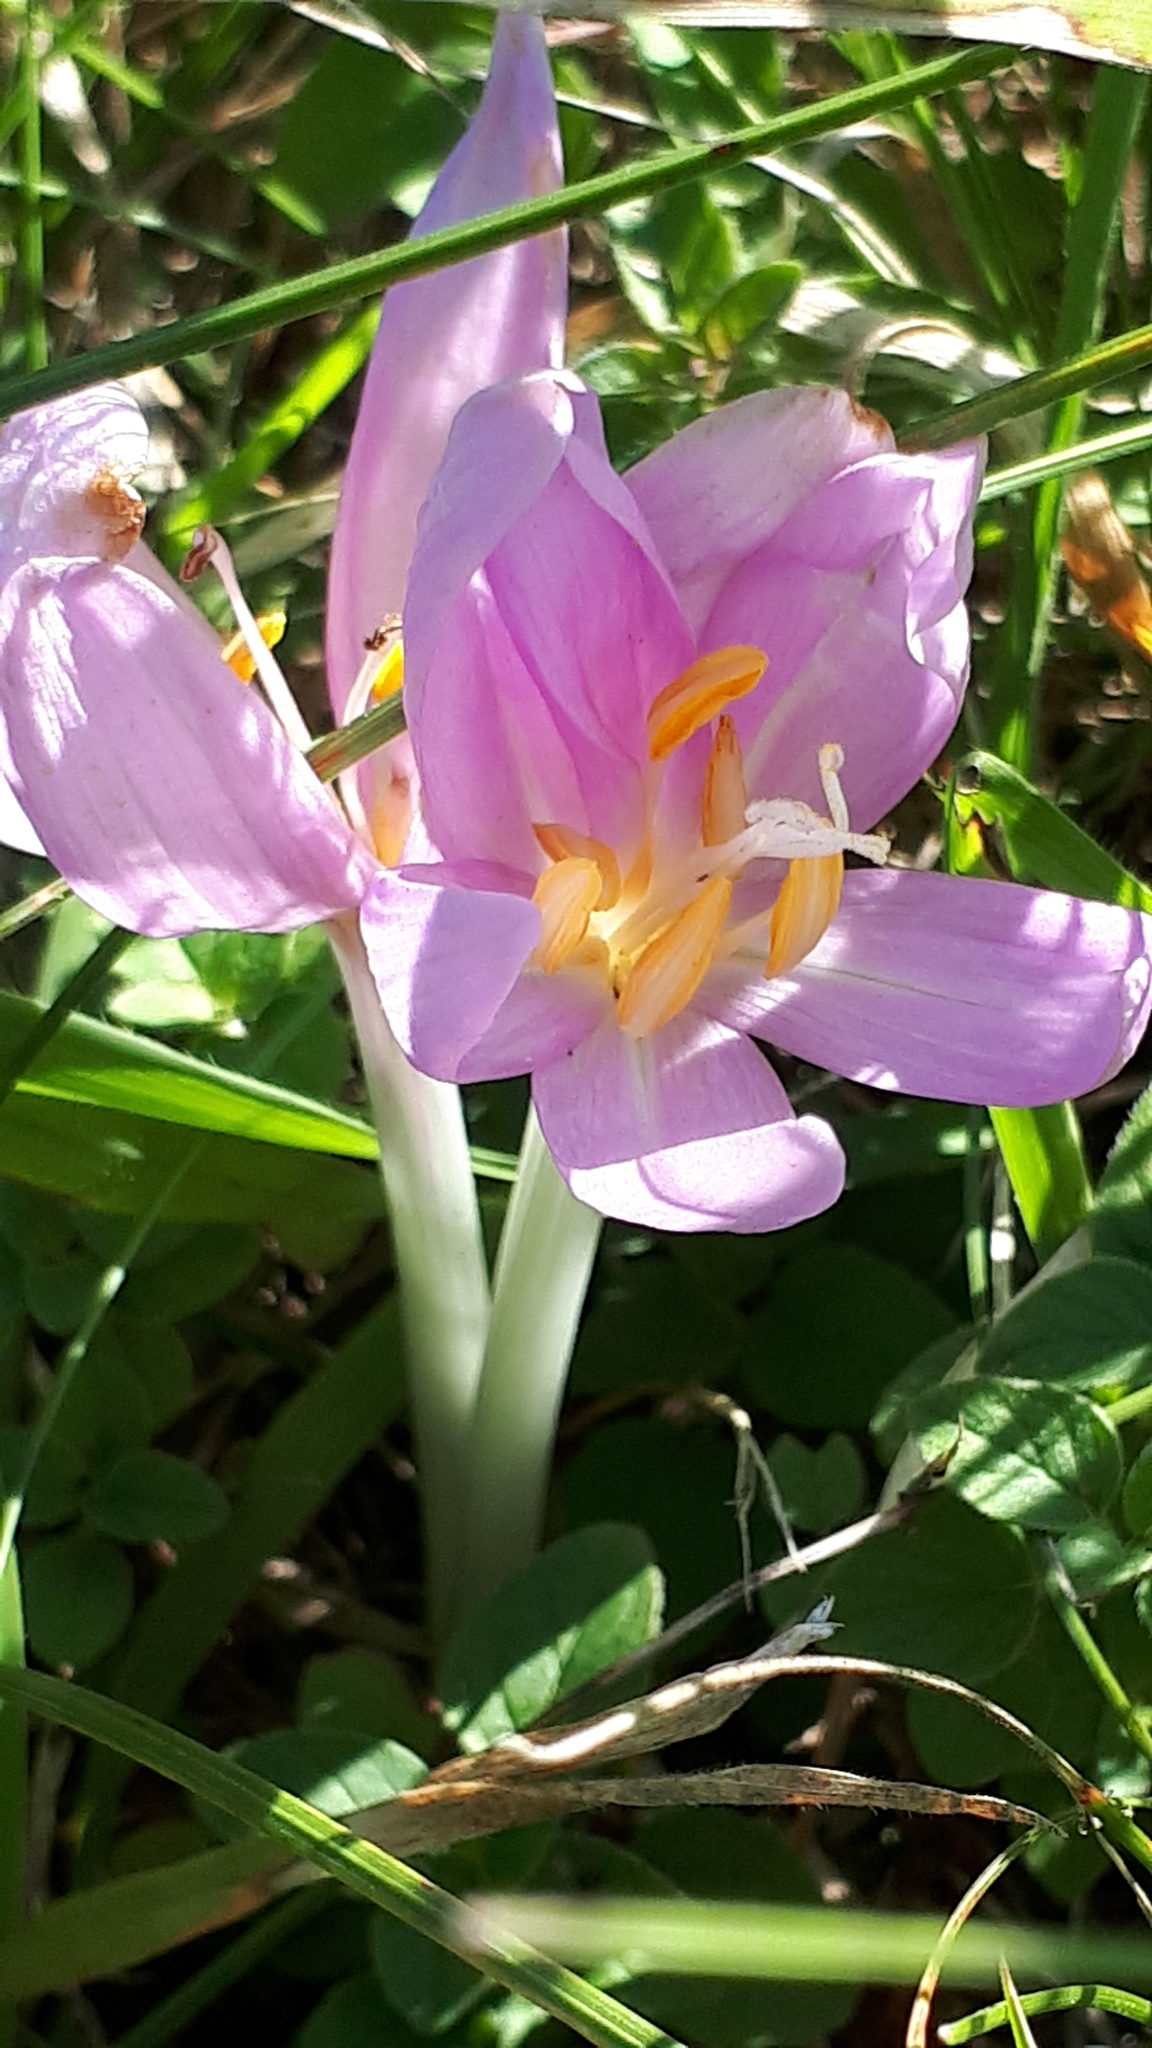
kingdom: Plantae
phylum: Tracheophyta
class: Liliopsida
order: Liliales
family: Colchicaceae
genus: Colchicum
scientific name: Colchicum autumnale
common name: Autumn crocus
